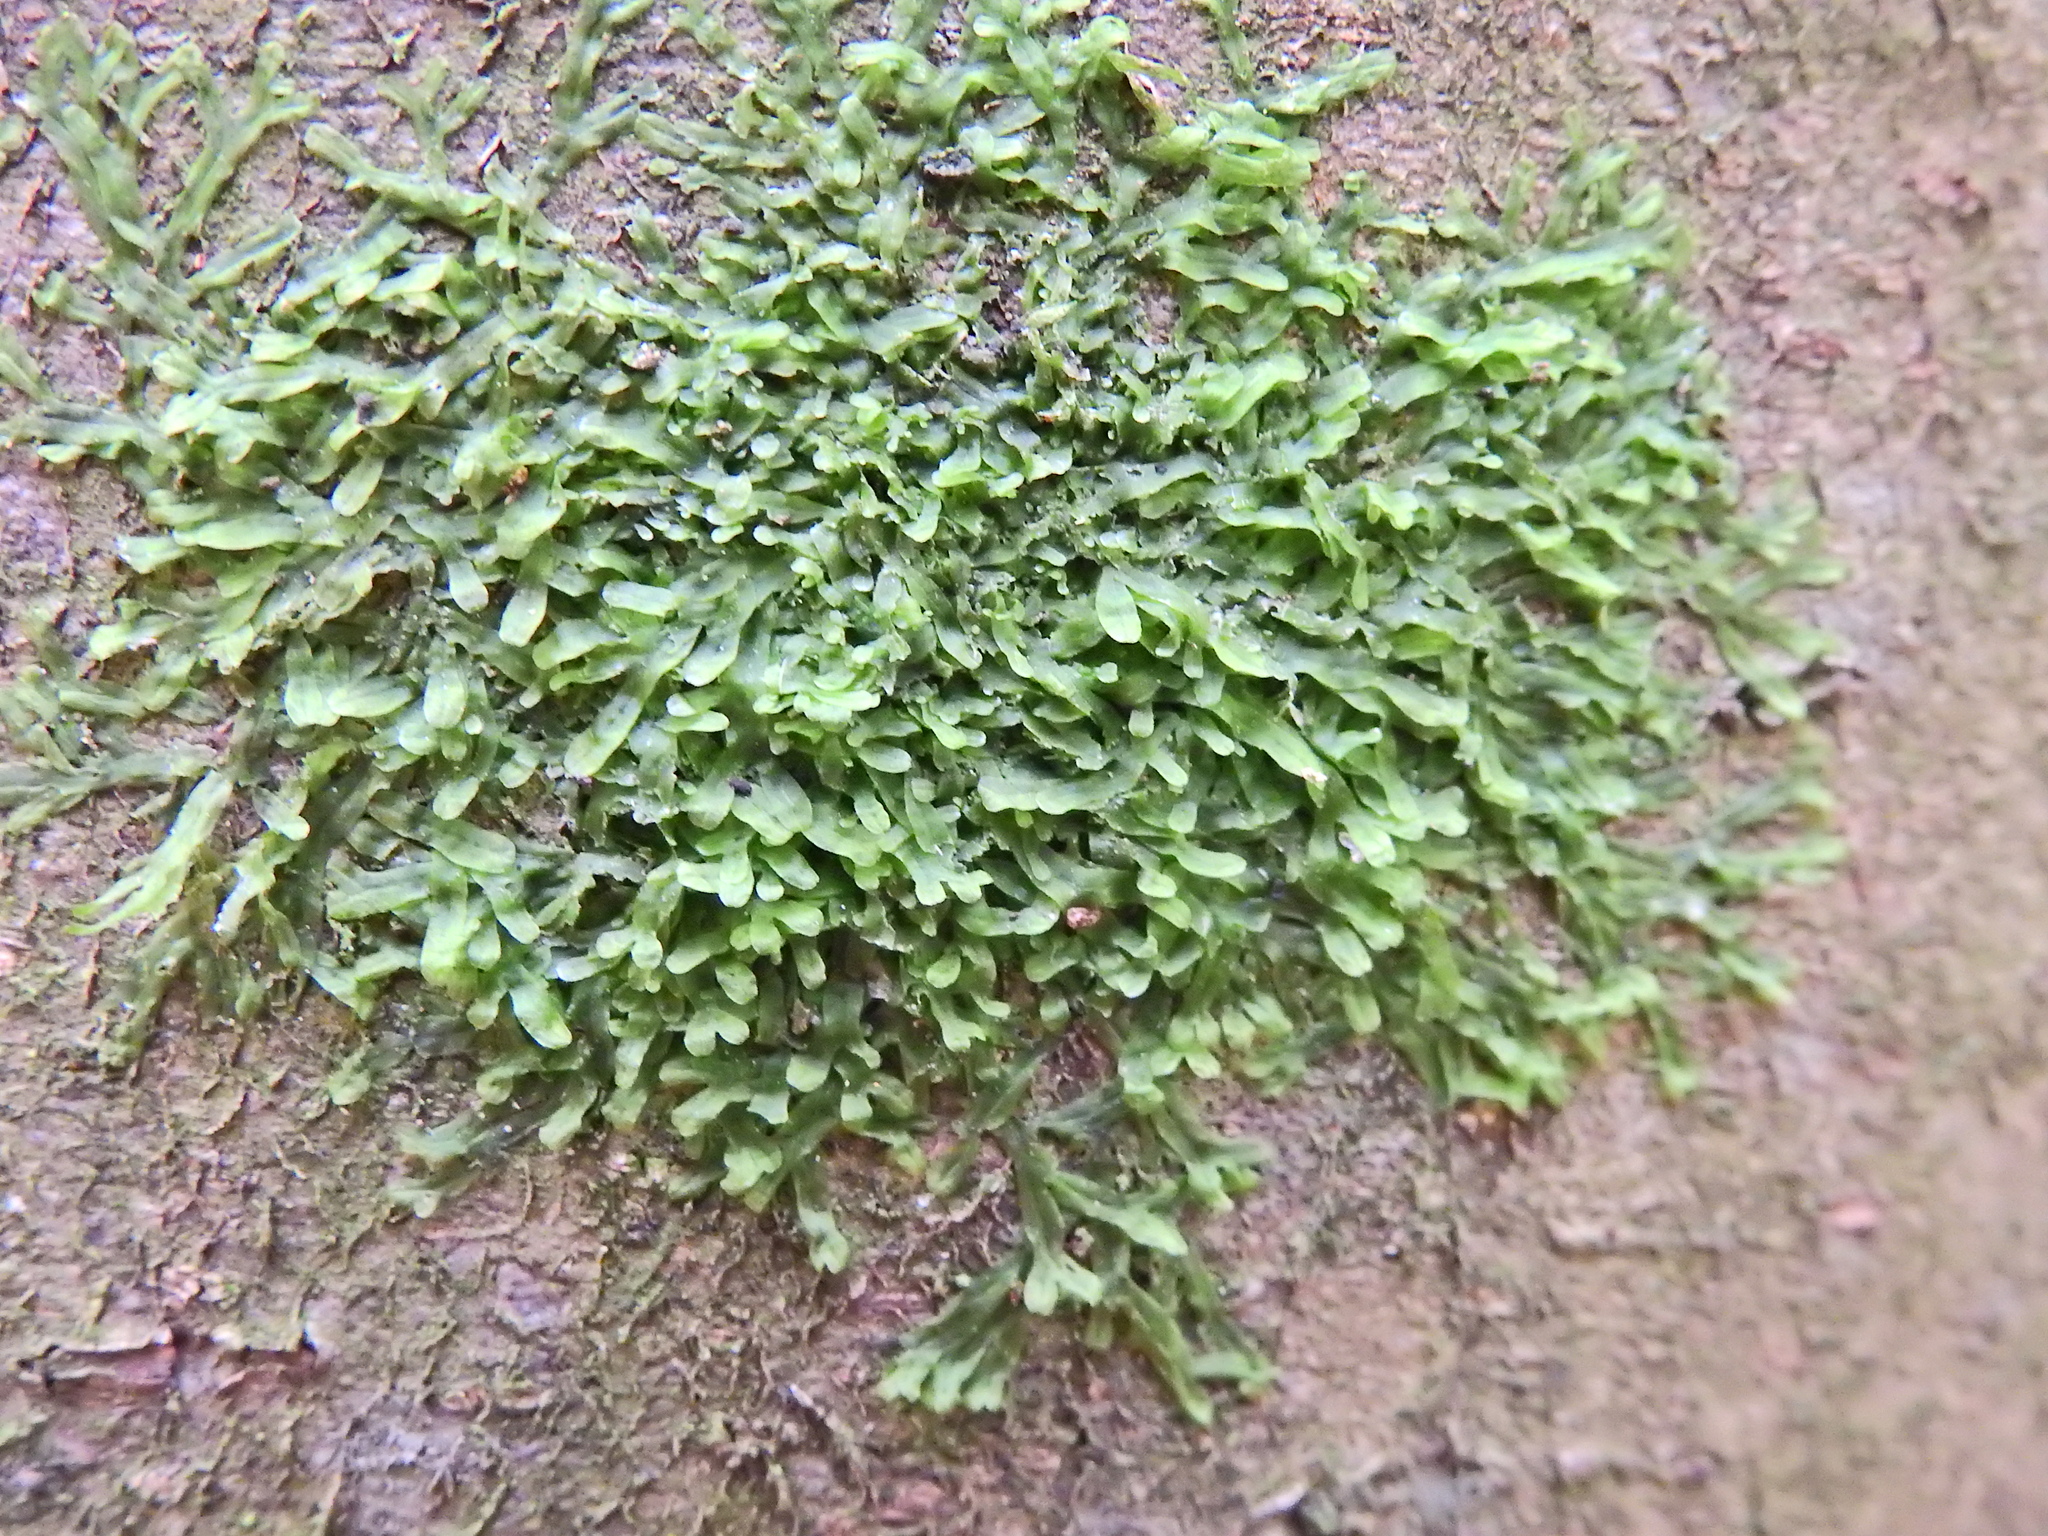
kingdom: Plantae
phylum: Marchantiophyta
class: Jungermanniopsida
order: Metzgeriales
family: Metzgeriaceae
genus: Metzgeria
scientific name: Metzgeria furcata
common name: Forked veilwort
